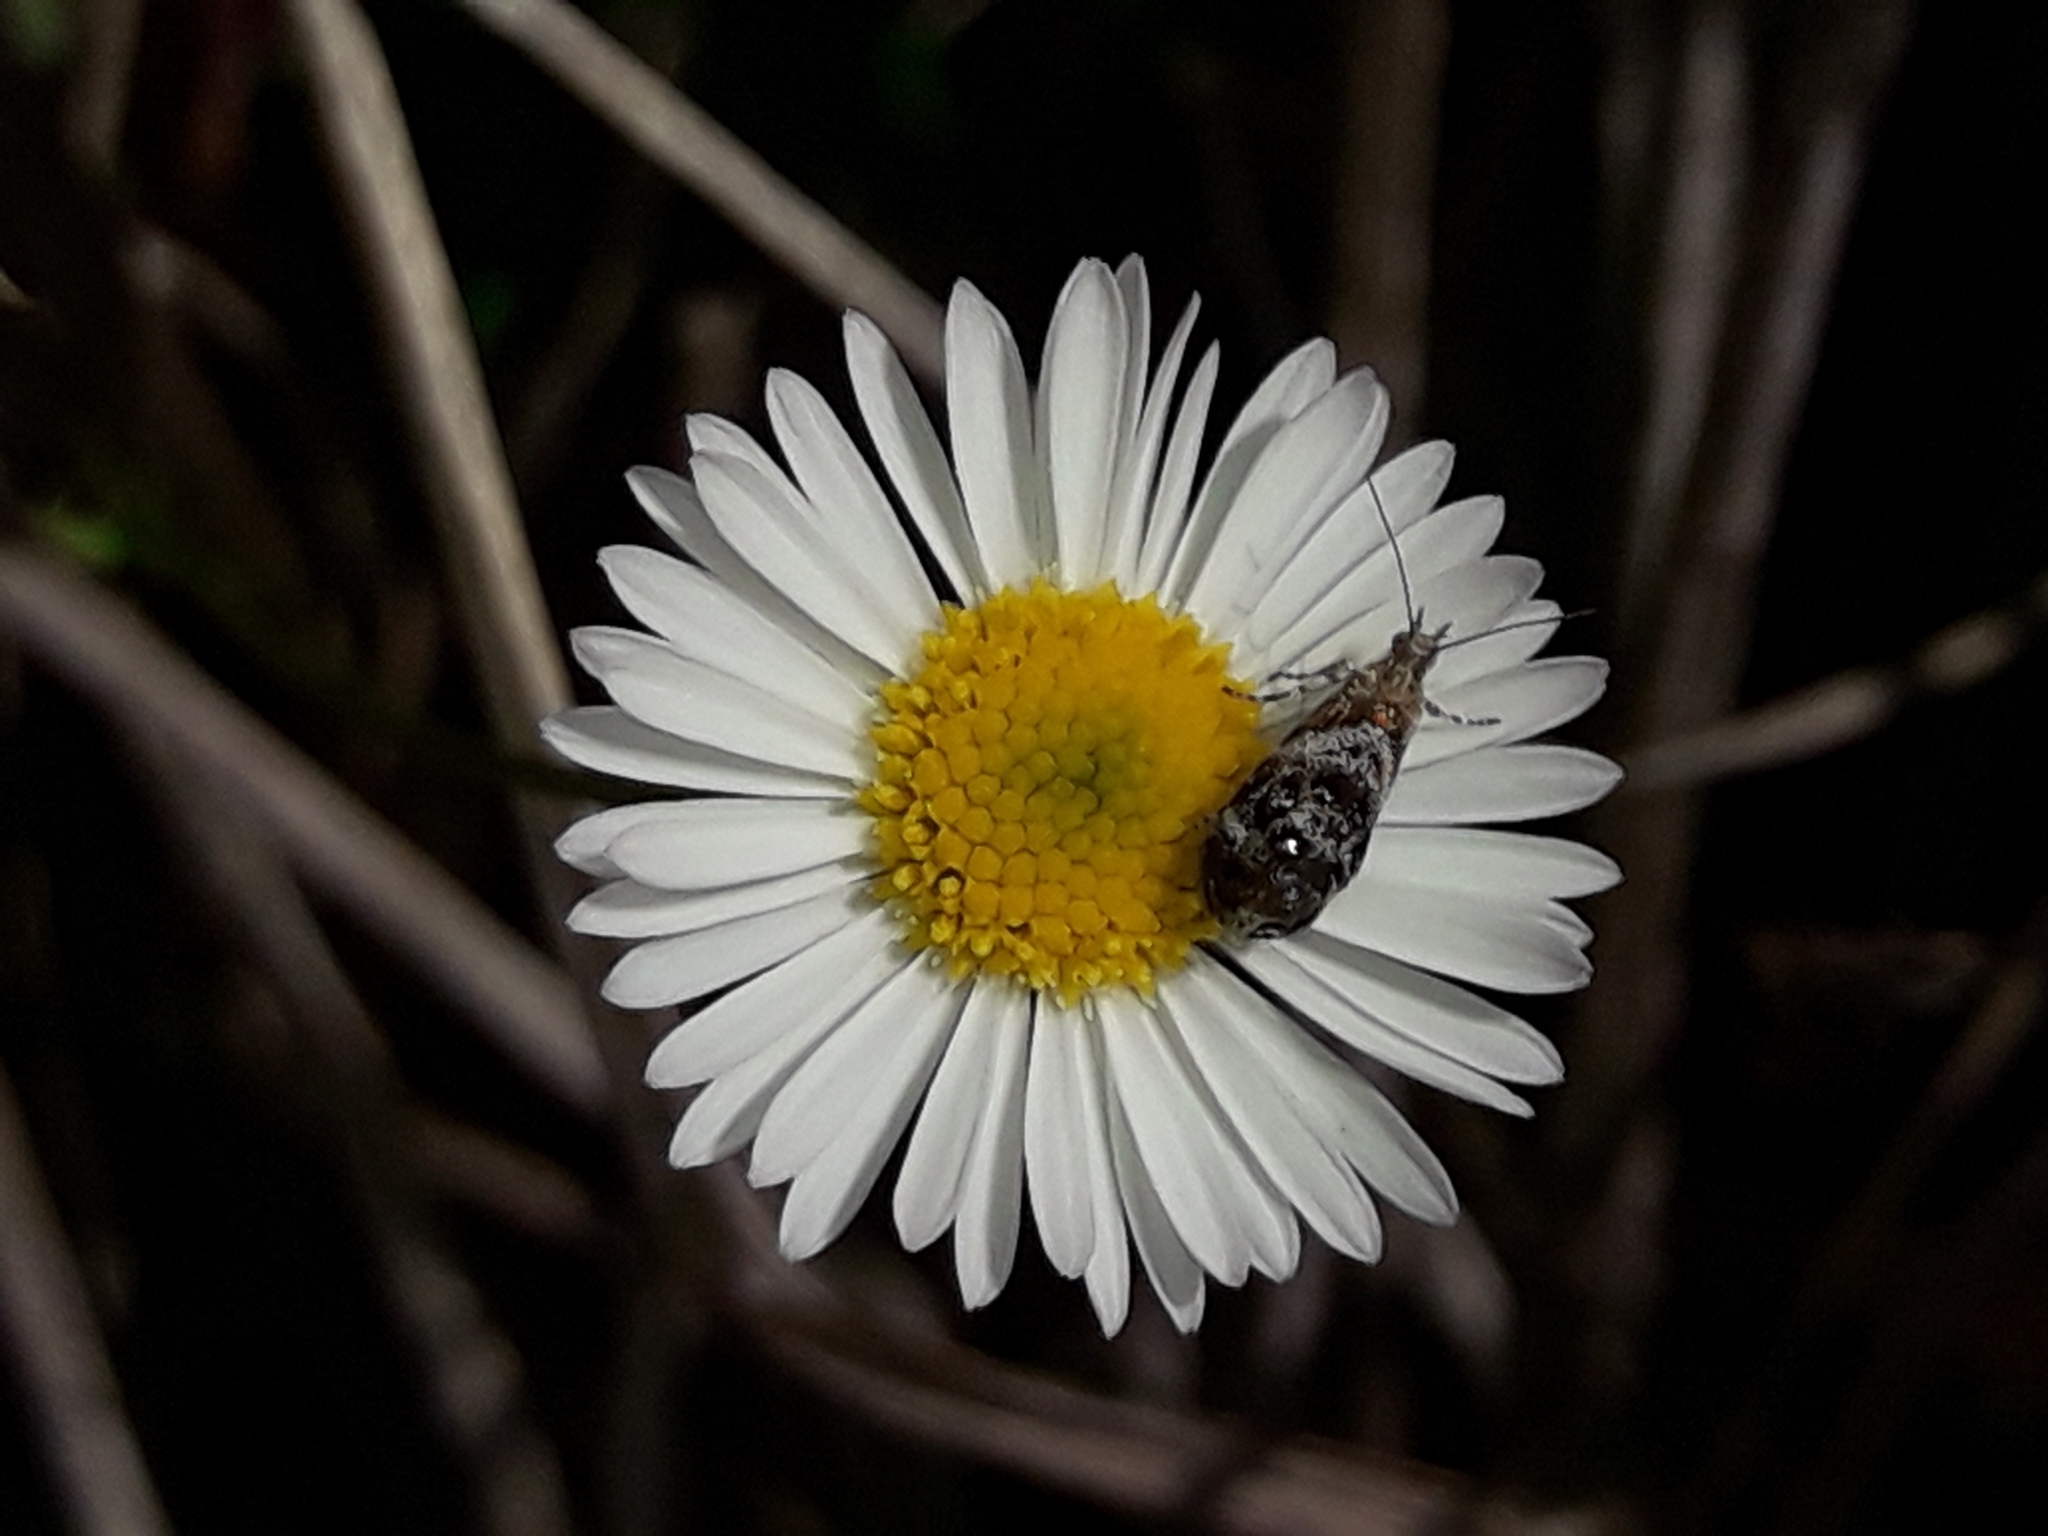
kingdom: Animalia
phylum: Arthropoda
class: Insecta
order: Lepidoptera
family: Choreutidae
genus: Tebenna
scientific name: Tebenna micalis
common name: Vagrant twitcher
